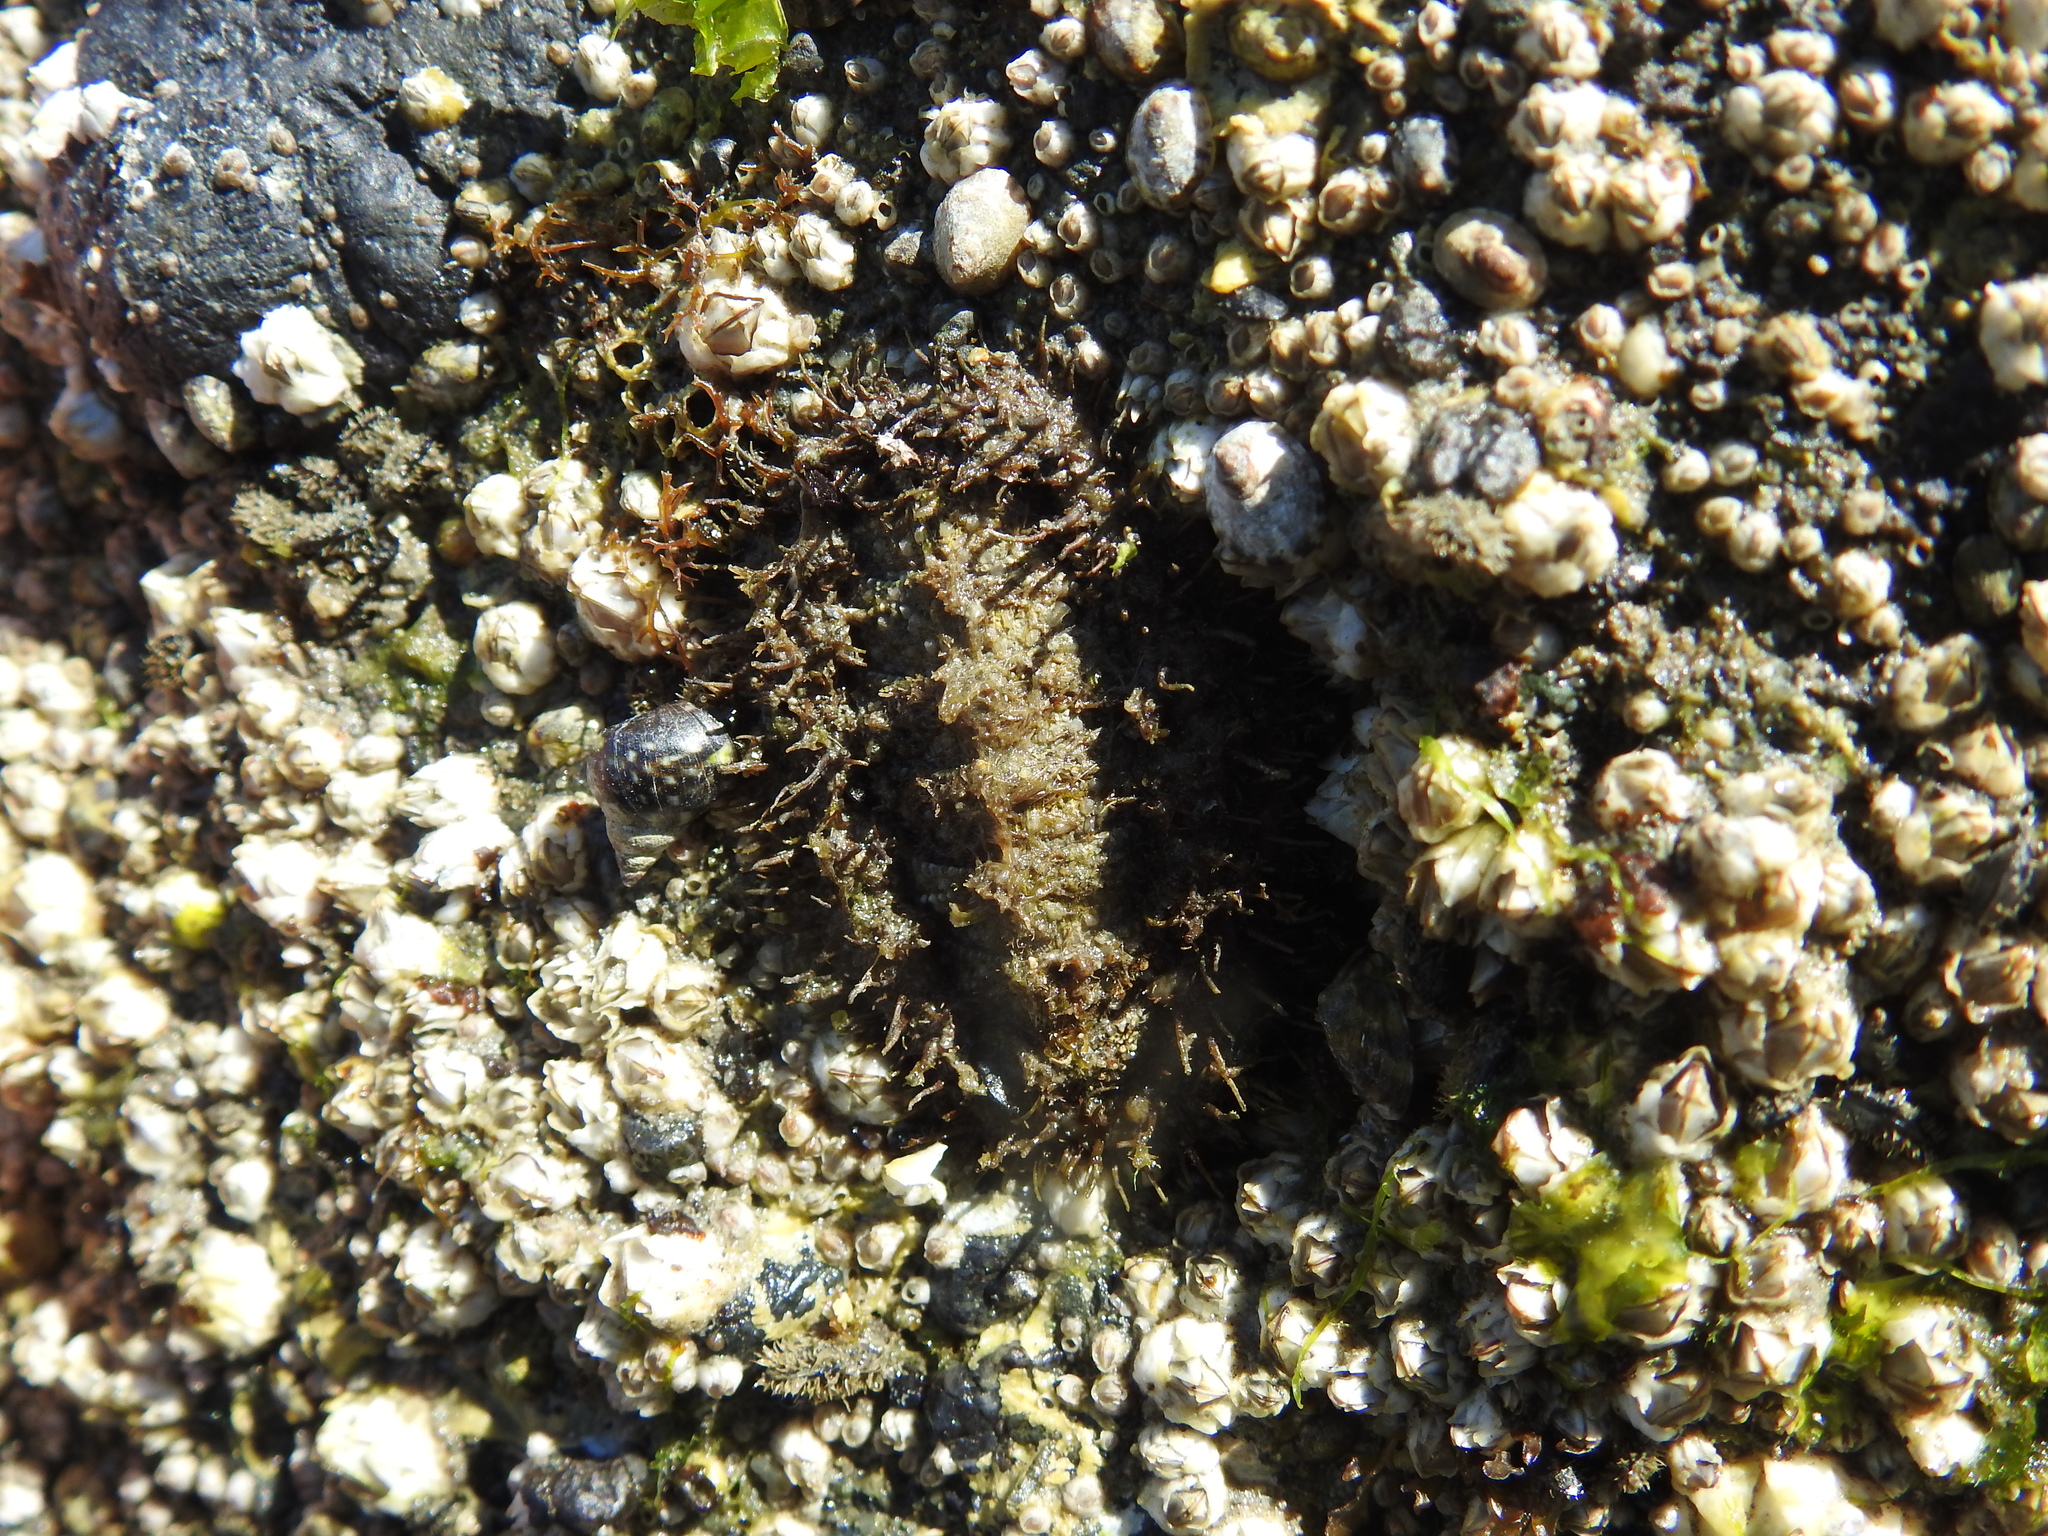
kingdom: Animalia
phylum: Mollusca
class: Polyplacophora
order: Chitonida
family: Mopaliidae
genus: Mopalia
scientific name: Mopalia muscosa
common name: Mossy chiton
